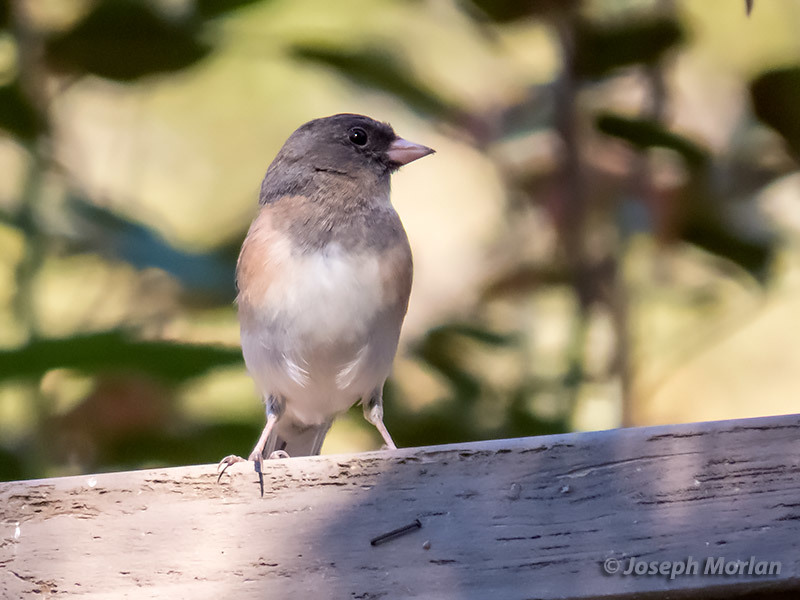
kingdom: Animalia
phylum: Chordata
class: Aves
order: Passeriformes
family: Passerellidae
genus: Junco
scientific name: Junco hyemalis
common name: Dark-eyed junco
